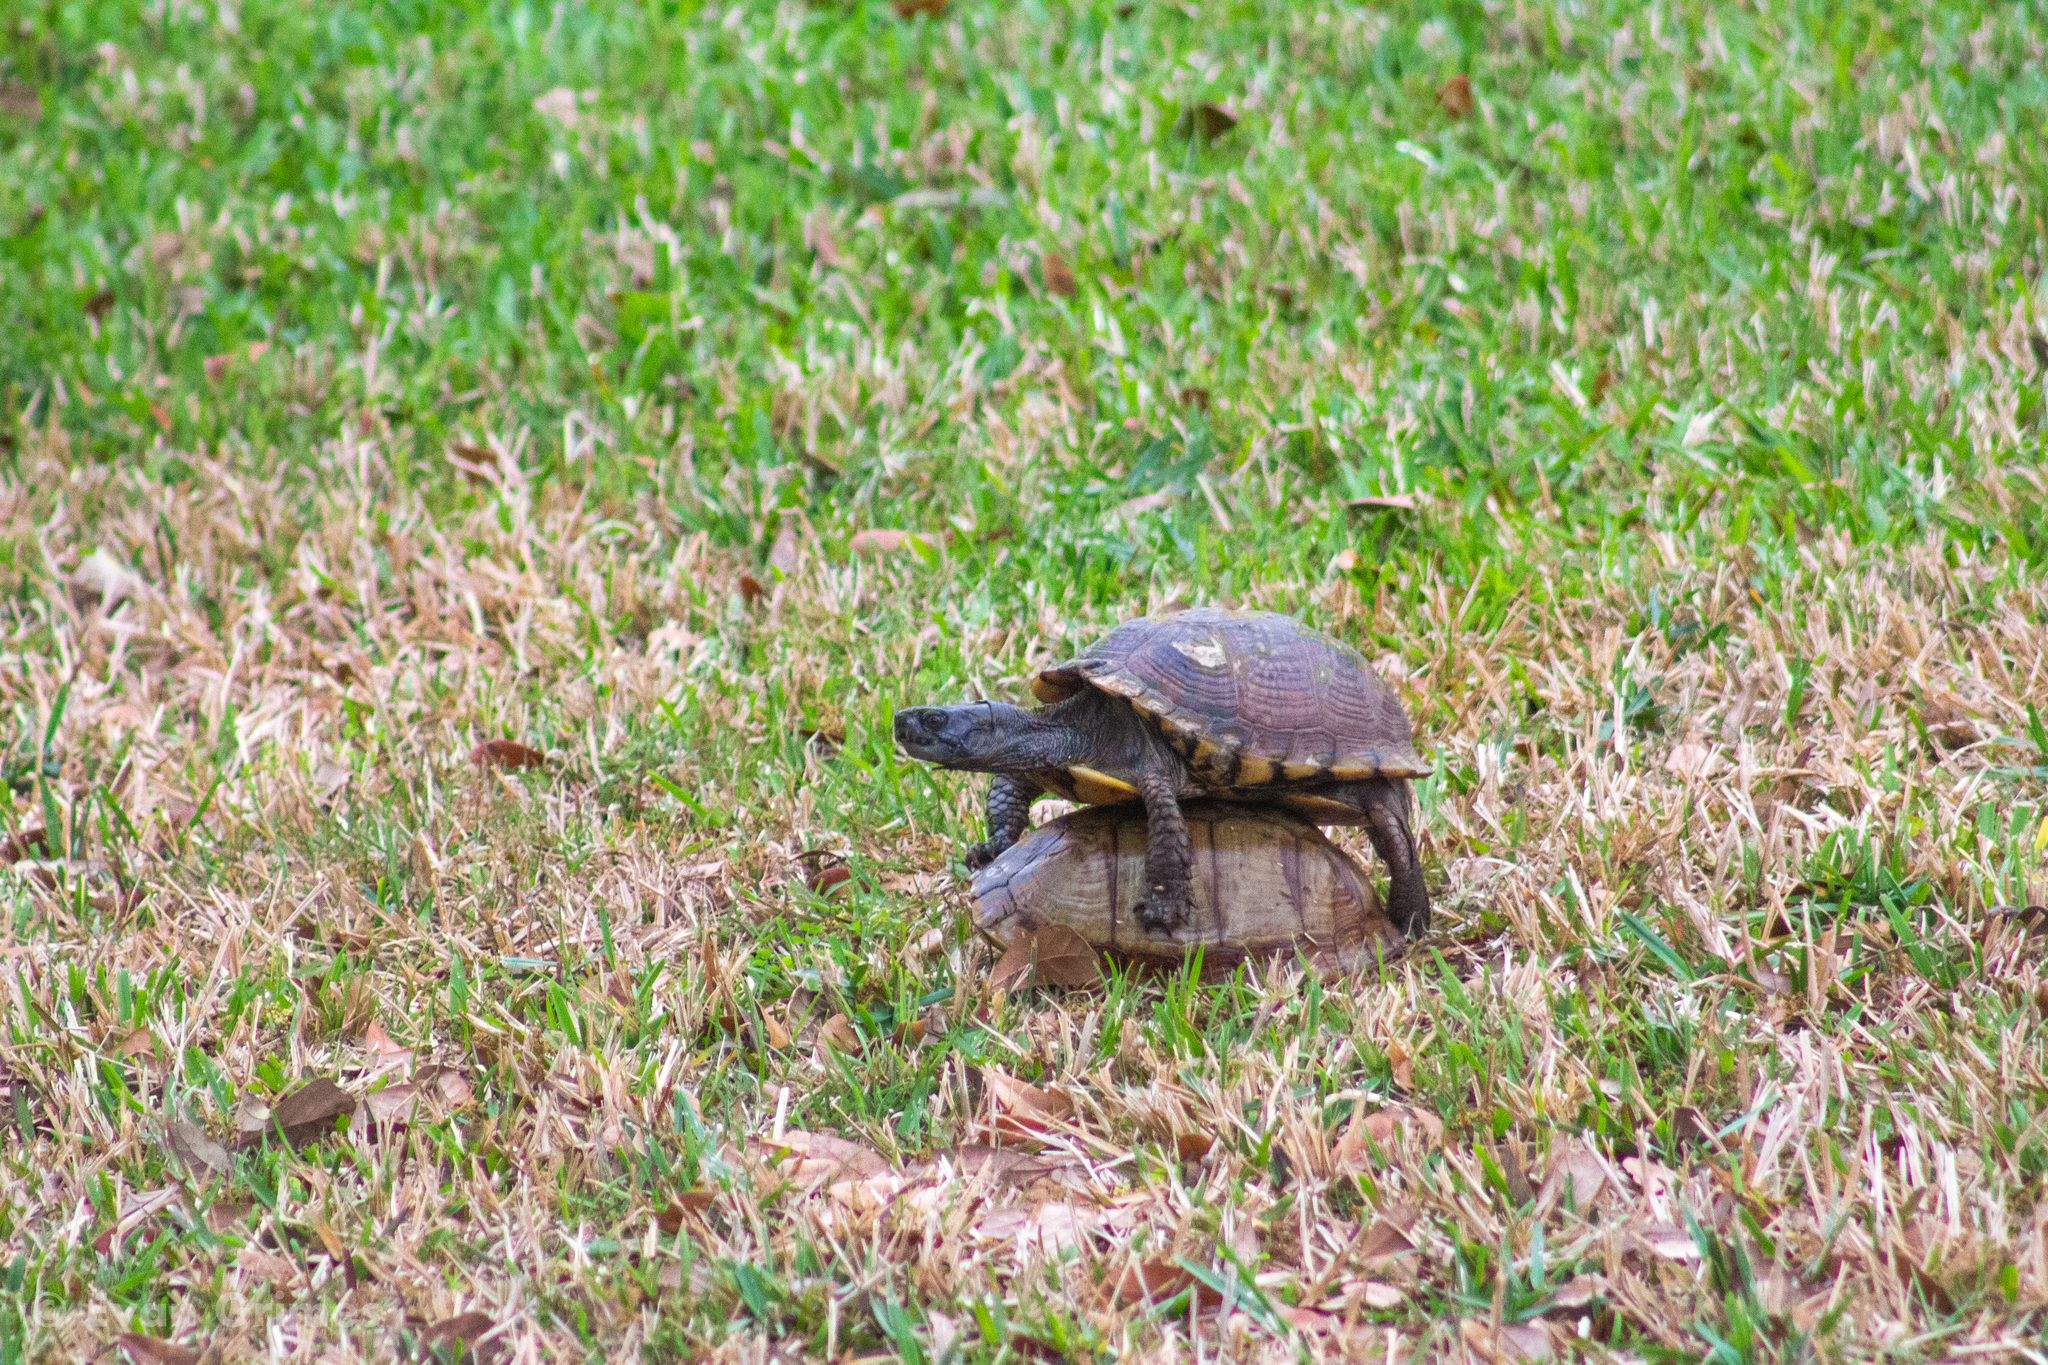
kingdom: Animalia
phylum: Chordata
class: Testudines
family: Emydidae
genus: Terrapene
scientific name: Terrapene carolina
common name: Common box turtle
